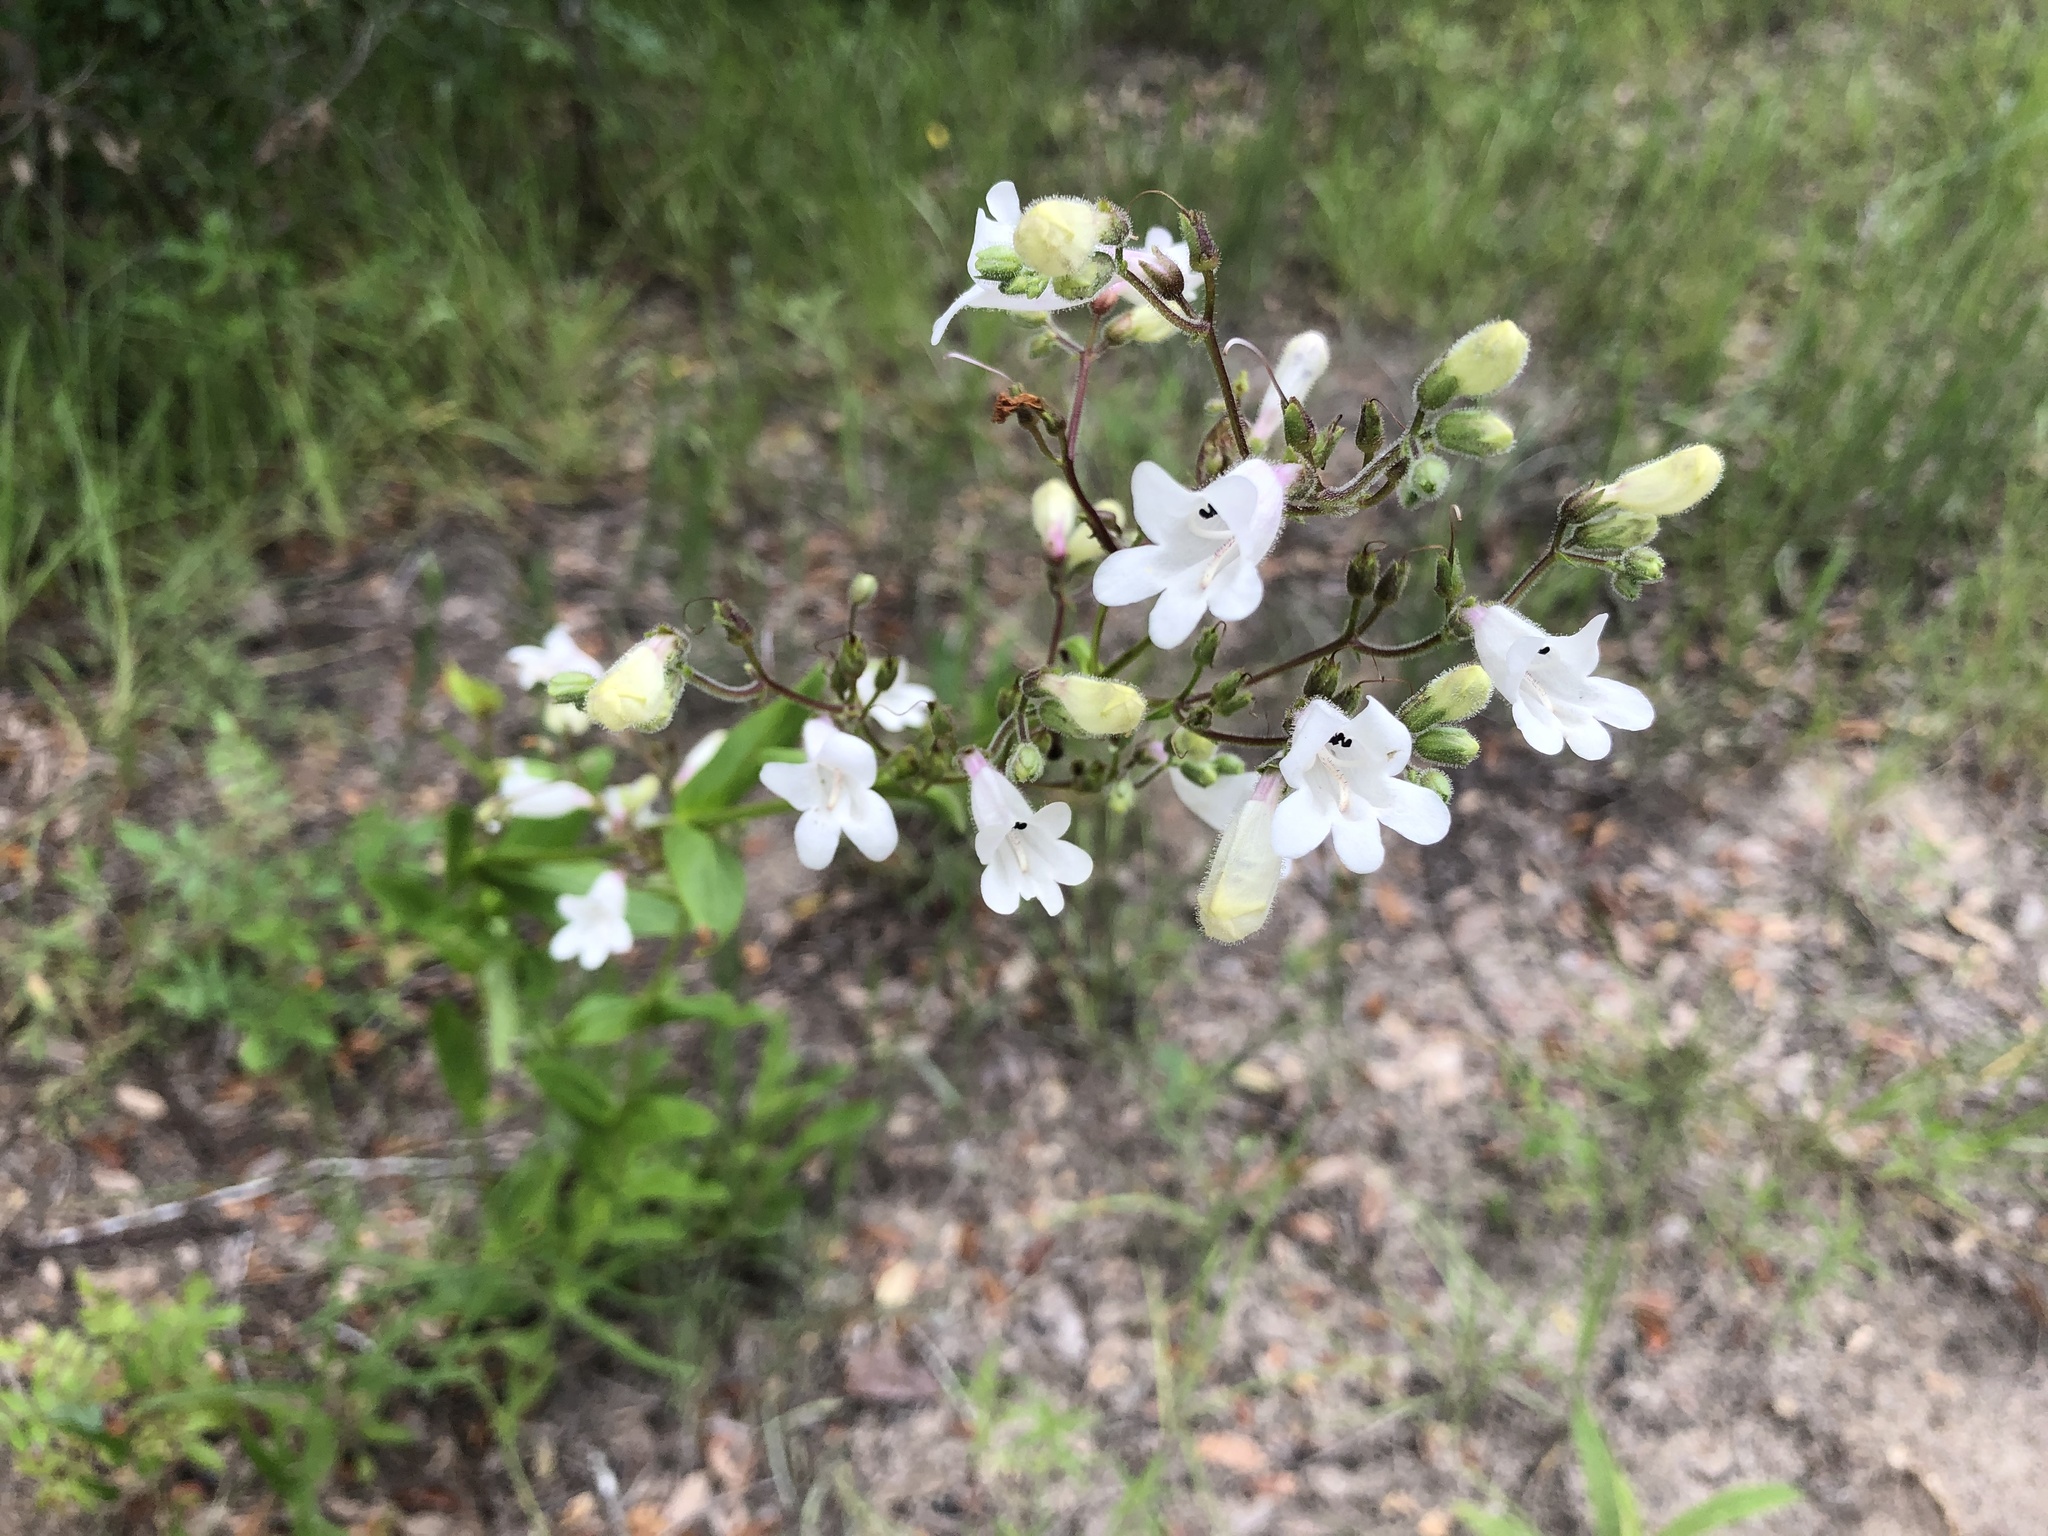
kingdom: Plantae
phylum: Tracheophyta
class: Magnoliopsida
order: Lamiales
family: Plantaginaceae
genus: Penstemon
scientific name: Penstemon multiflorus
